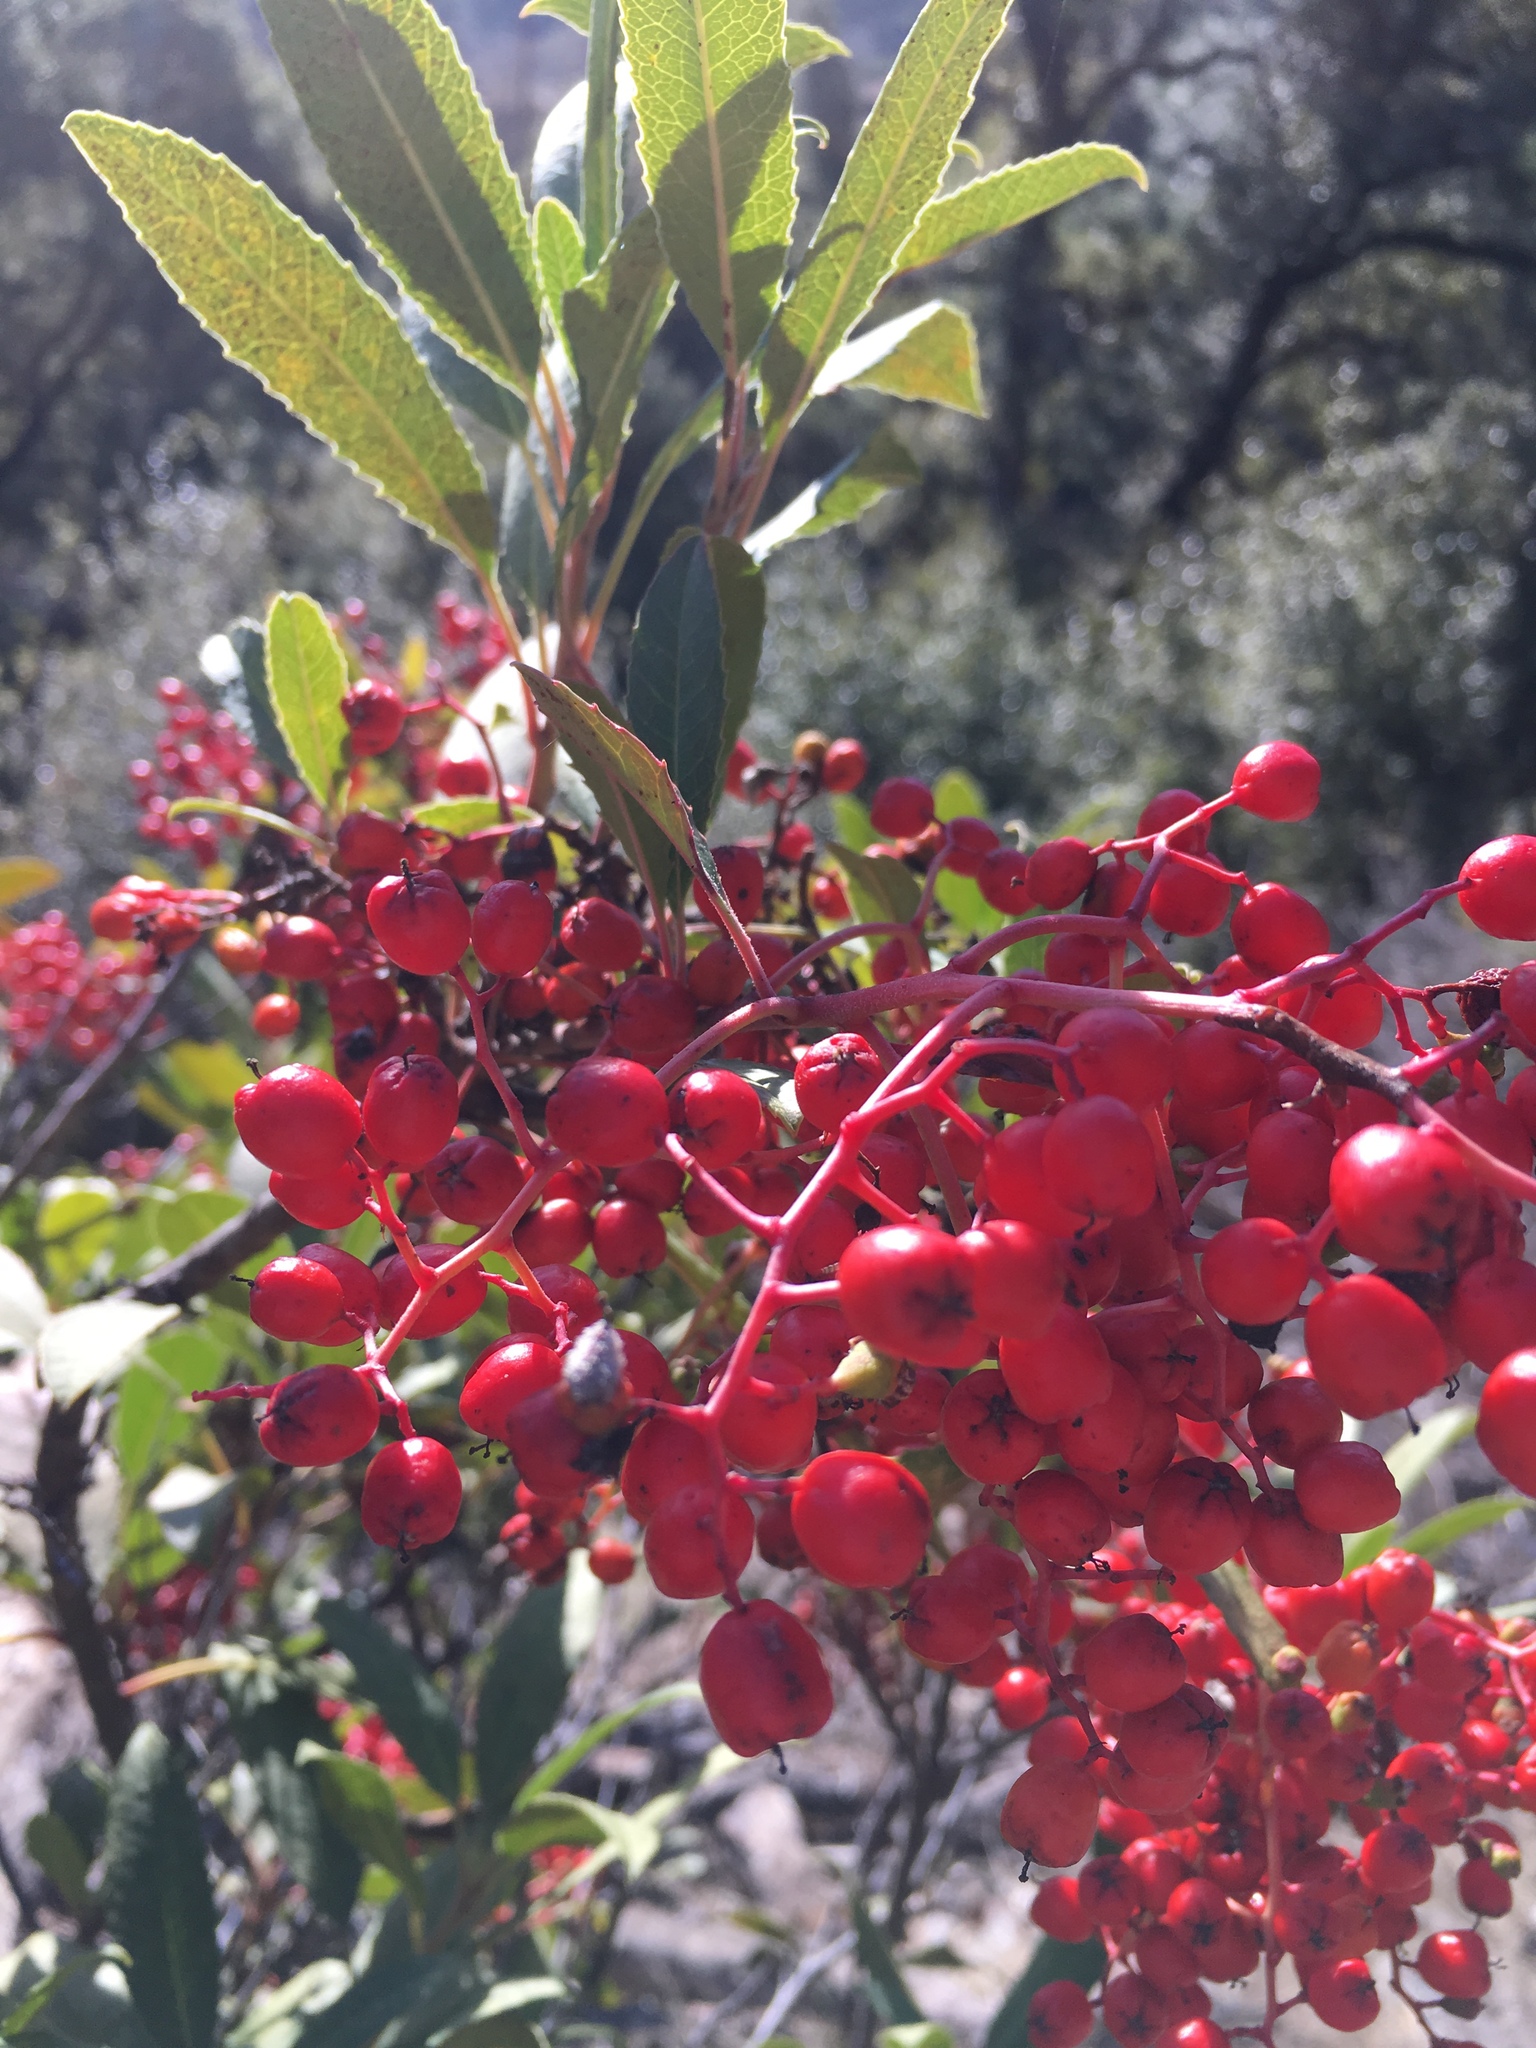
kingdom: Plantae
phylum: Tracheophyta
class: Magnoliopsida
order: Rosales
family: Rosaceae
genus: Heteromeles
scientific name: Heteromeles arbutifolia
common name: California-holly
